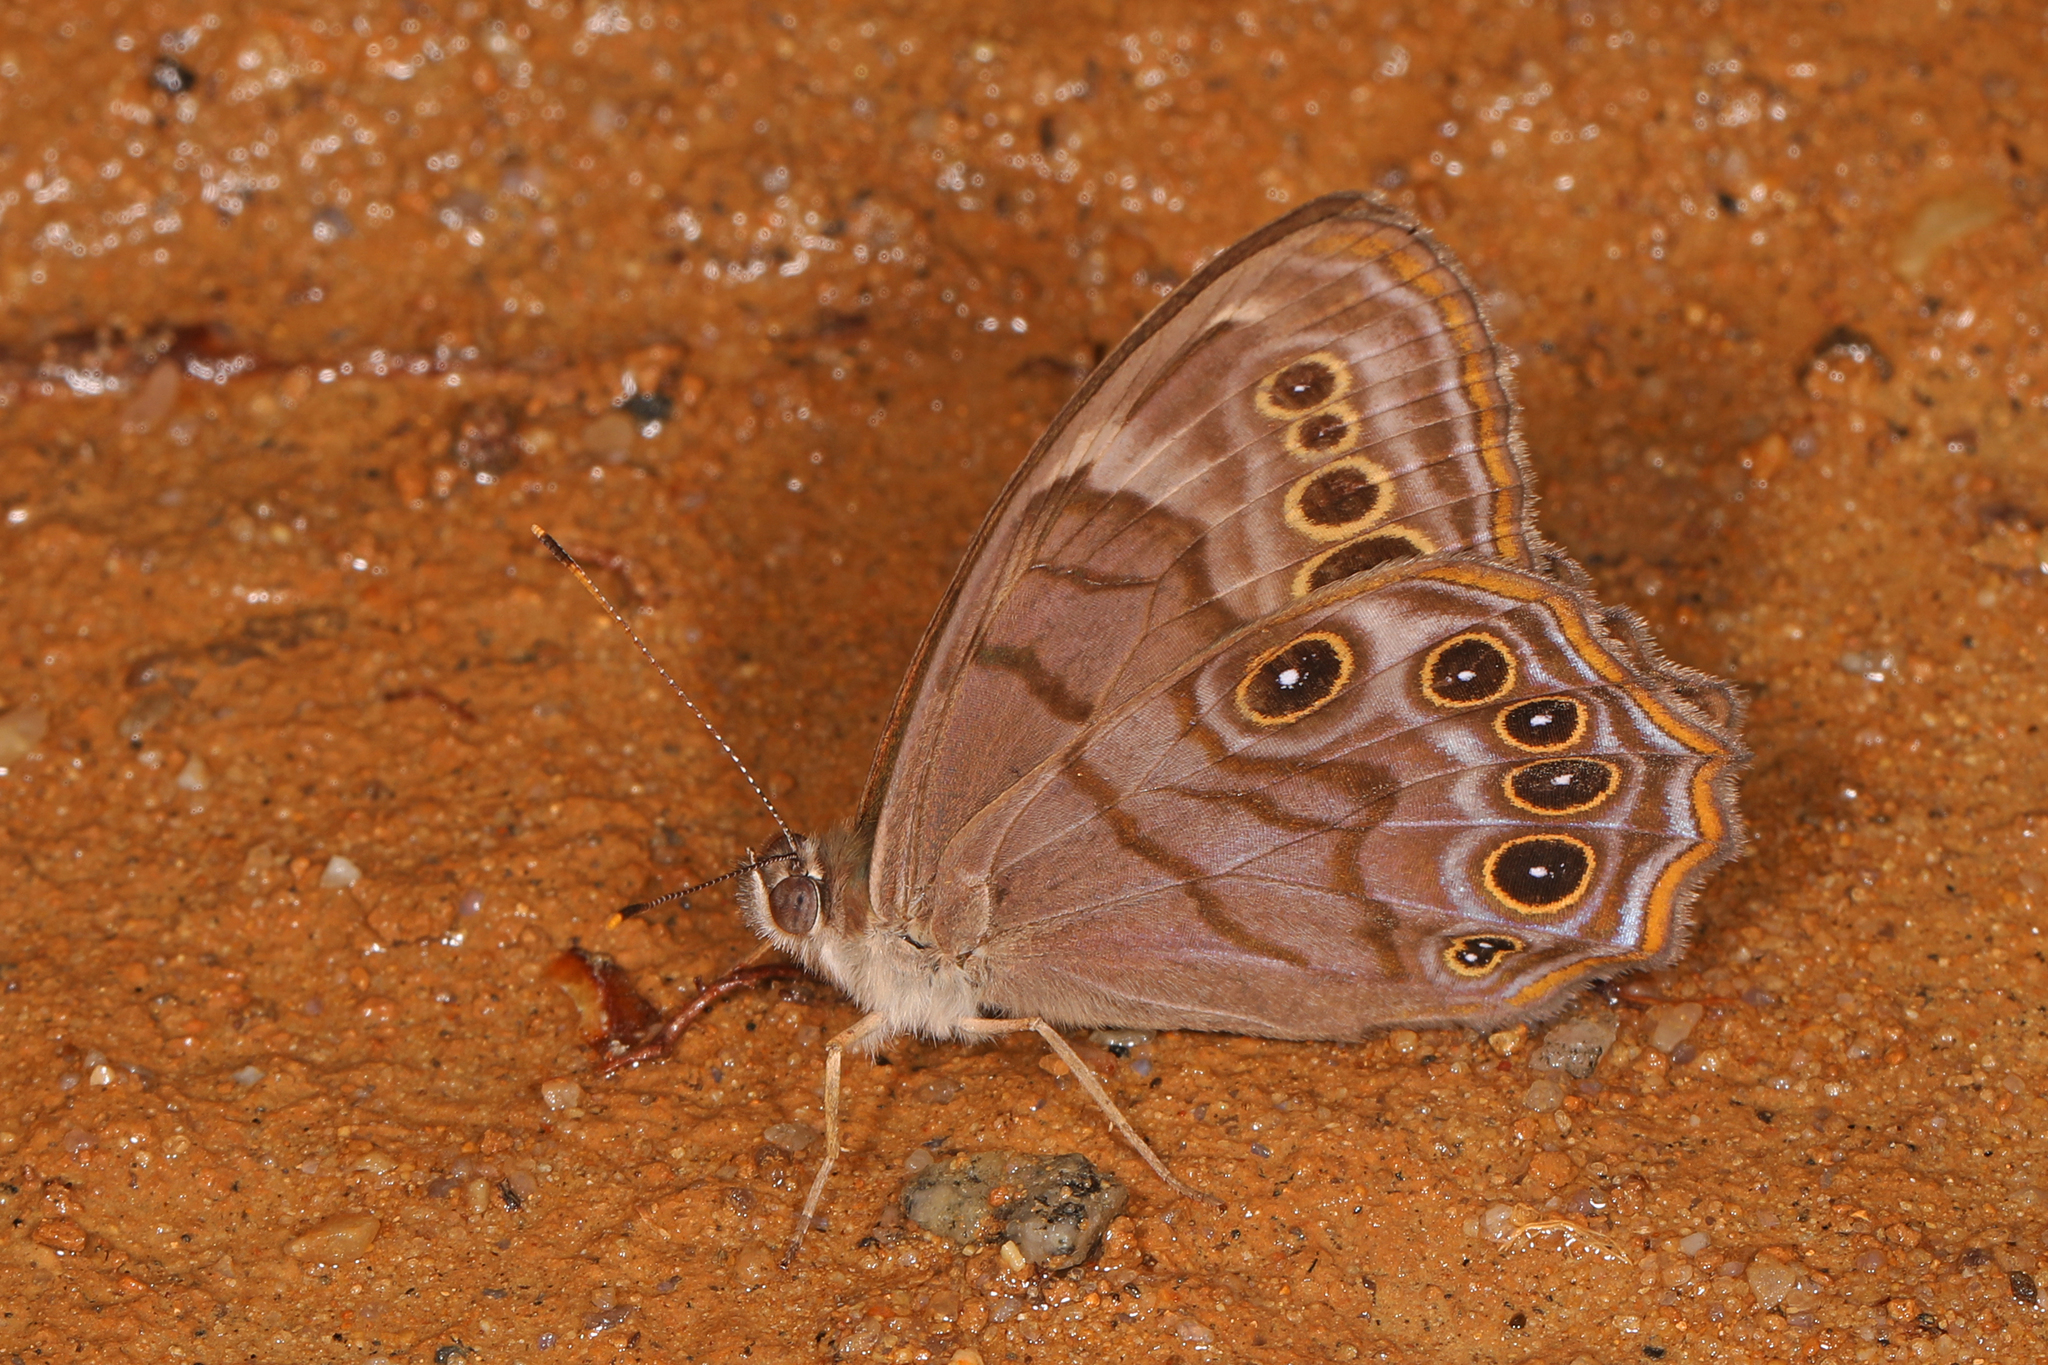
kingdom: Animalia
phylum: Arthropoda
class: Insecta
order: Lepidoptera
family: Nymphalidae
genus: Lethe
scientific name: Lethe anthedon
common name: Northern pearly-eye
